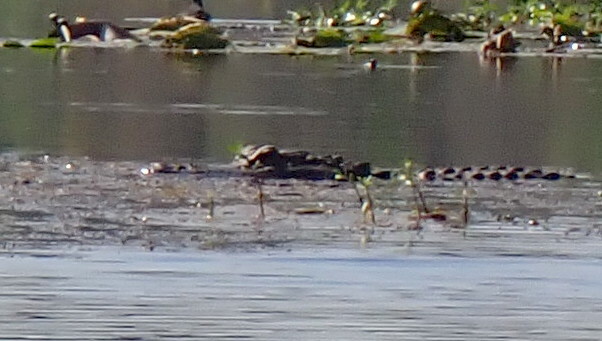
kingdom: Animalia
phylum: Chordata
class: Crocodylia
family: Alligatoridae
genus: Alligator
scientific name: Alligator mississippiensis
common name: American alligator
